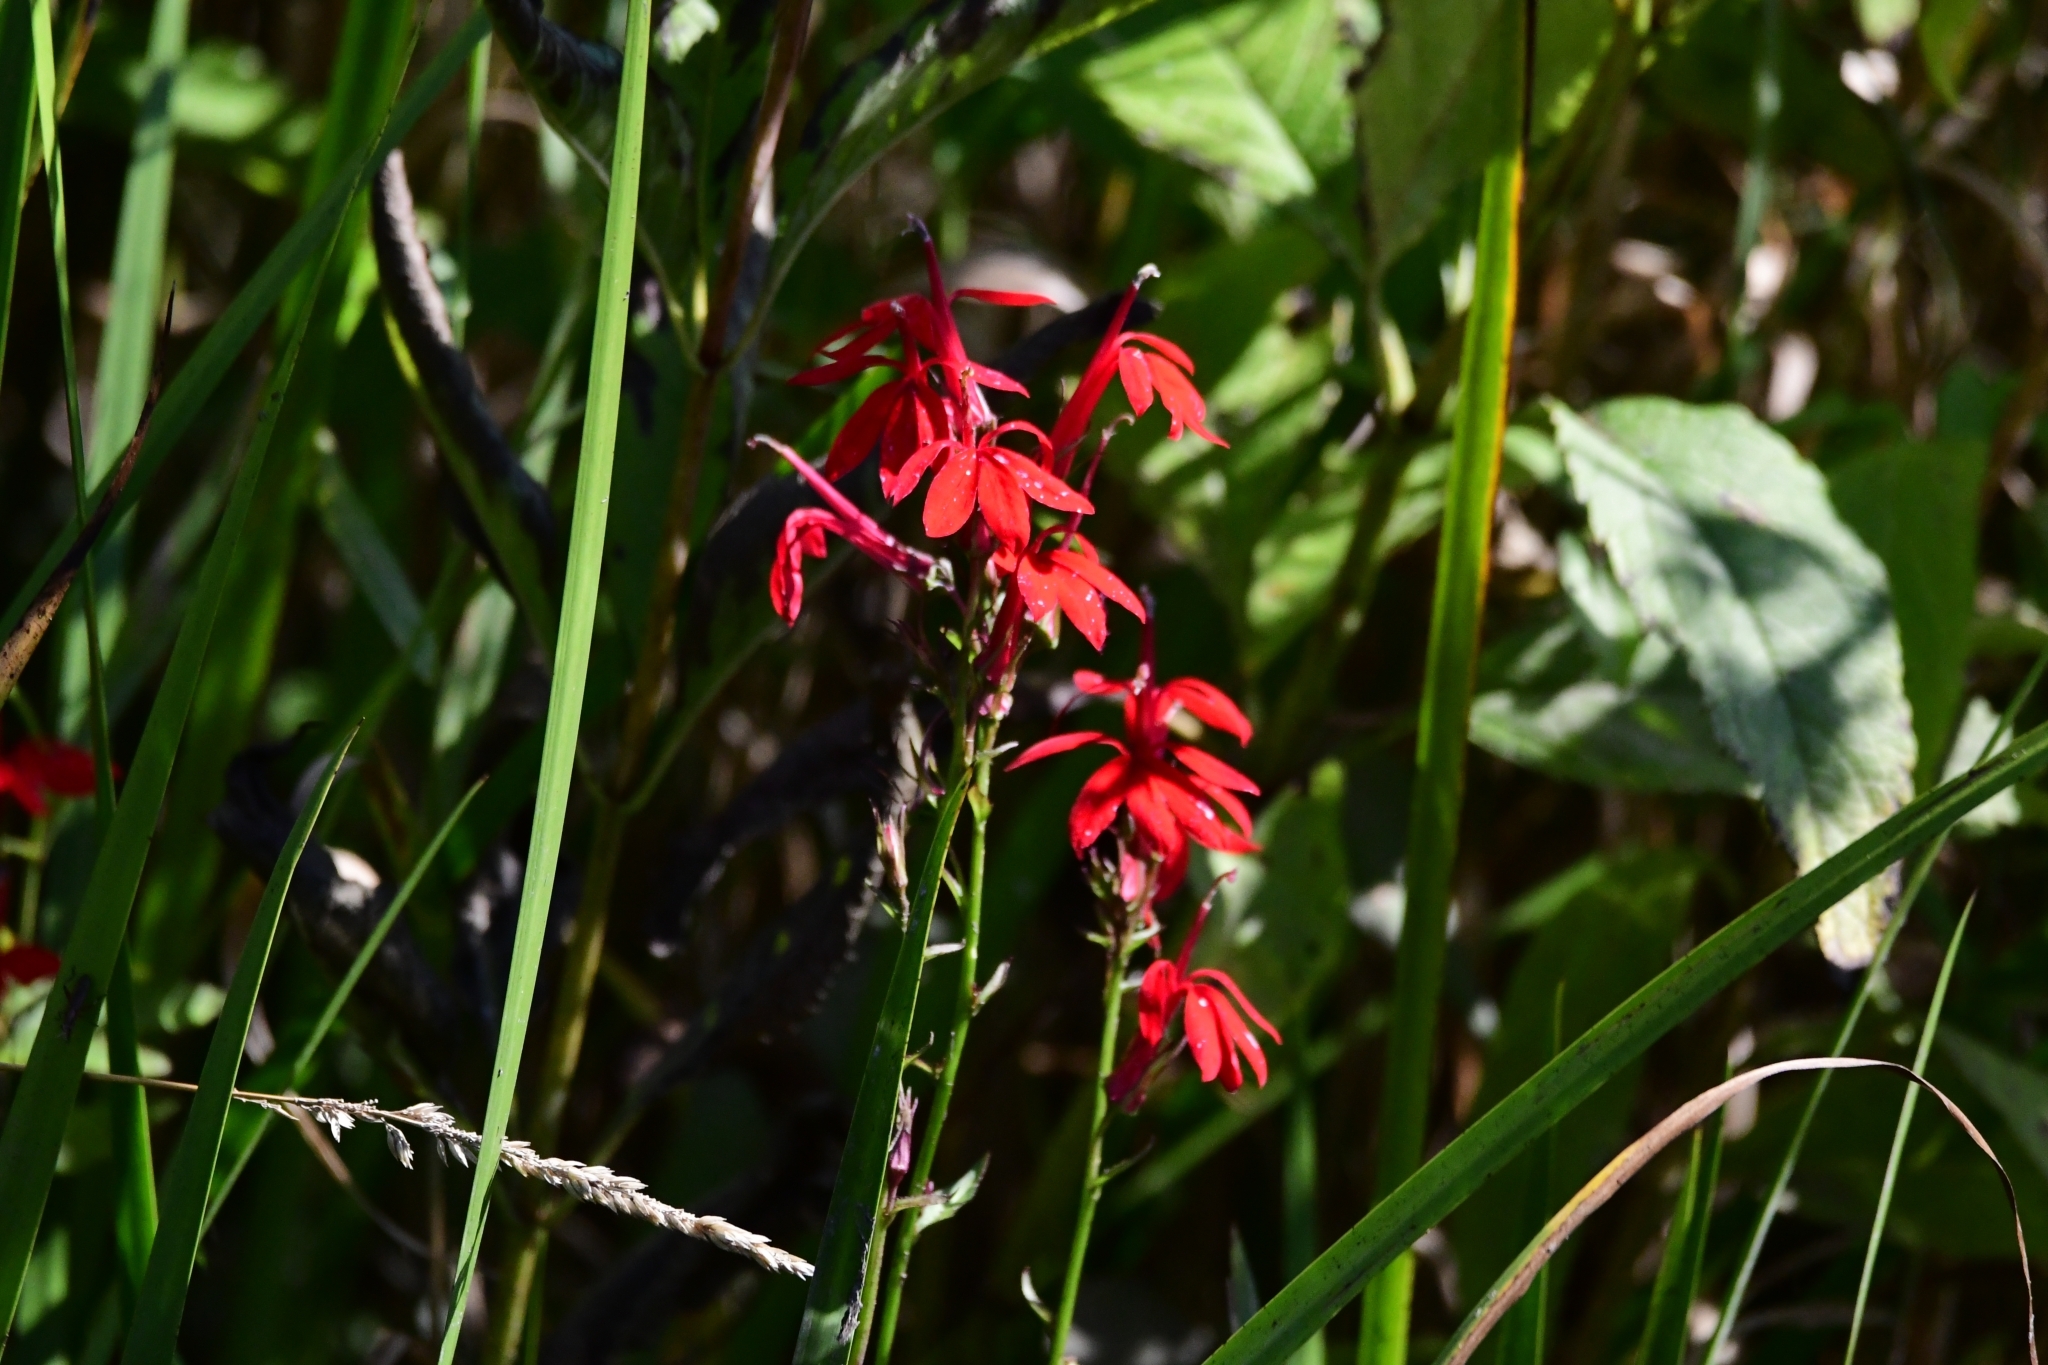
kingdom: Plantae
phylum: Tracheophyta
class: Magnoliopsida
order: Asterales
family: Campanulaceae
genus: Lobelia
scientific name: Lobelia cardinalis
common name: Cardinal flower
